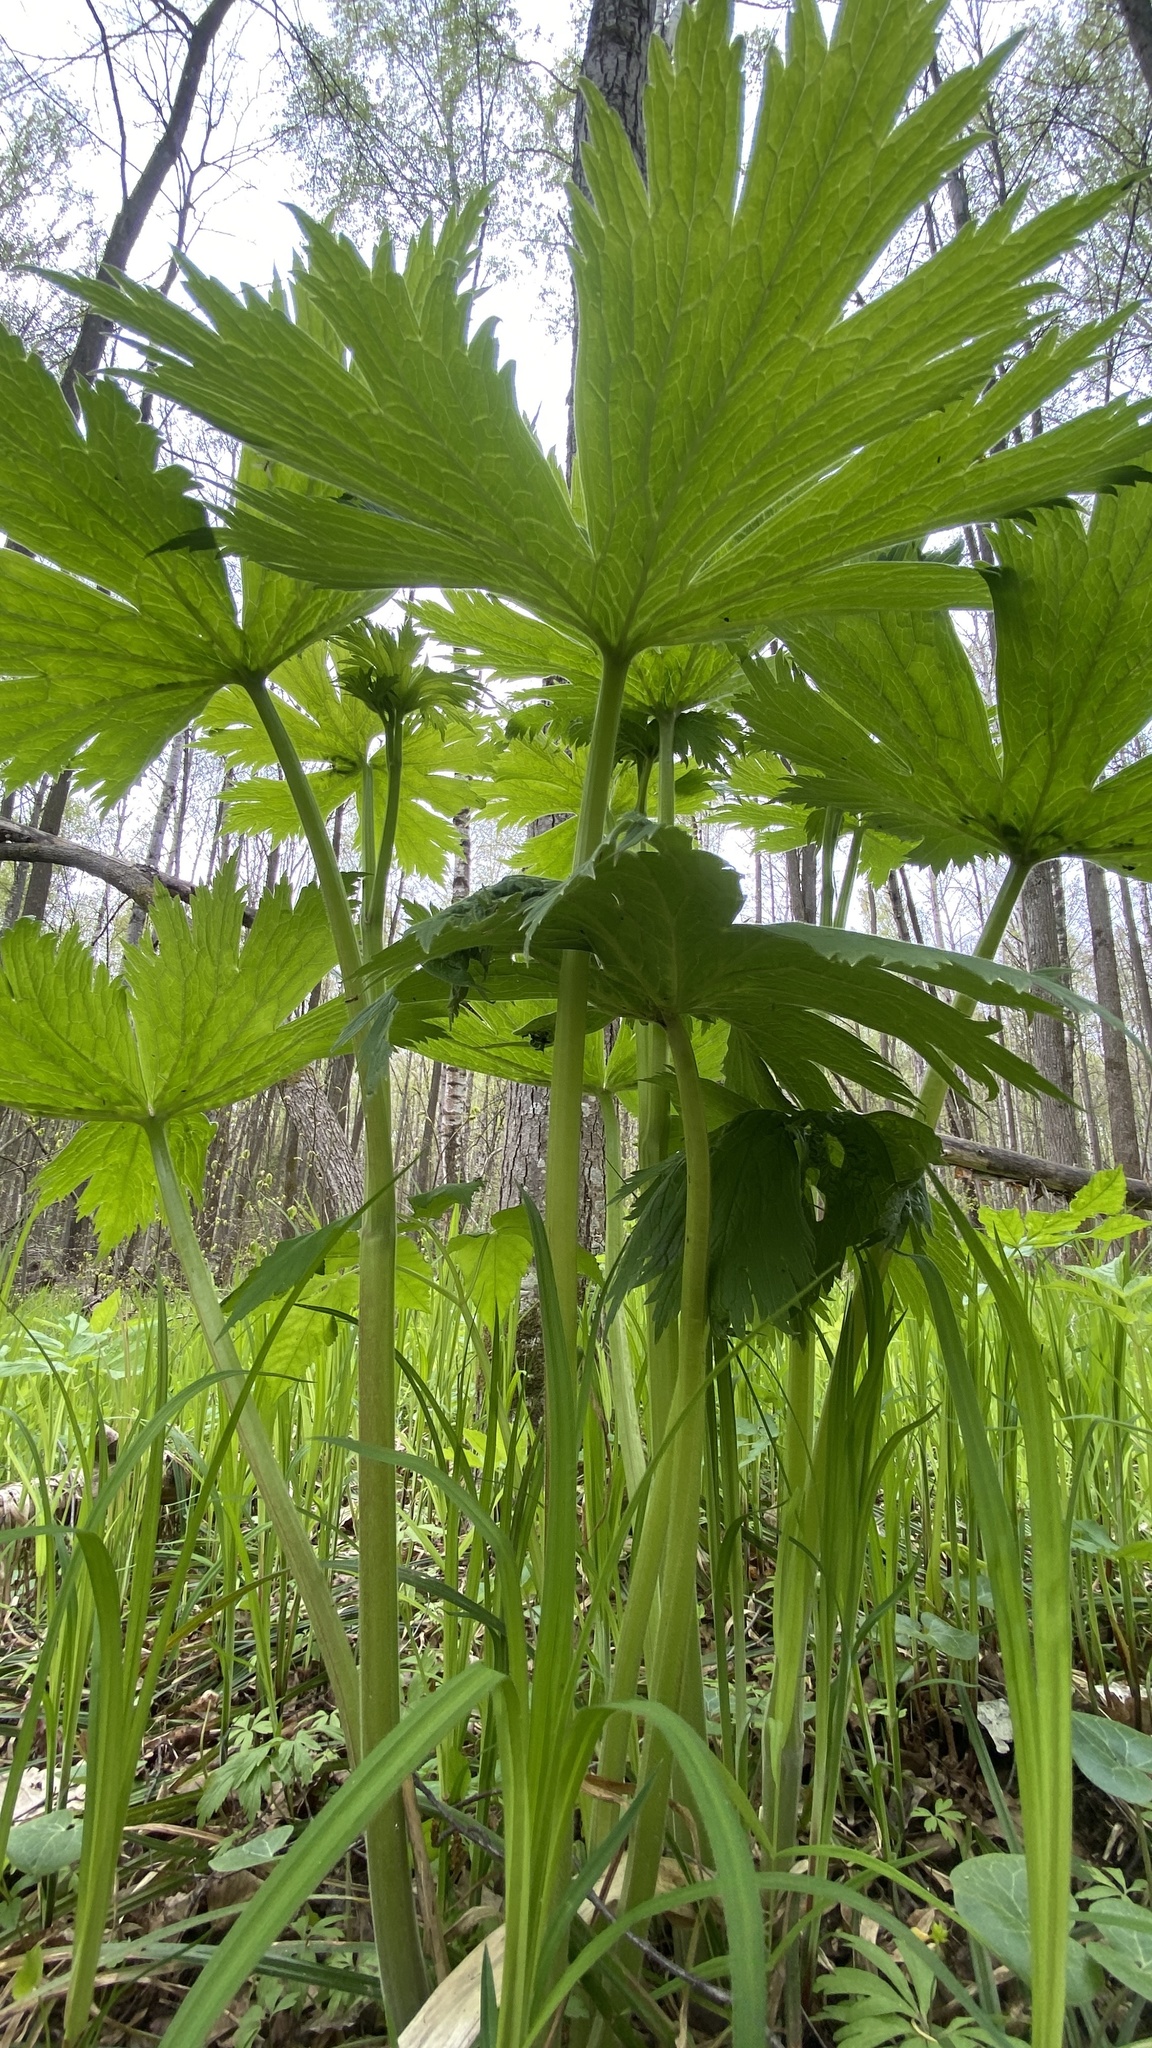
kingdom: Plantae
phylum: Tracheophyta
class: Magnoliopsida
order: Ranunculales
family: Ranunculaceae
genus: Aconitum
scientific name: Aconitum septentrionale
